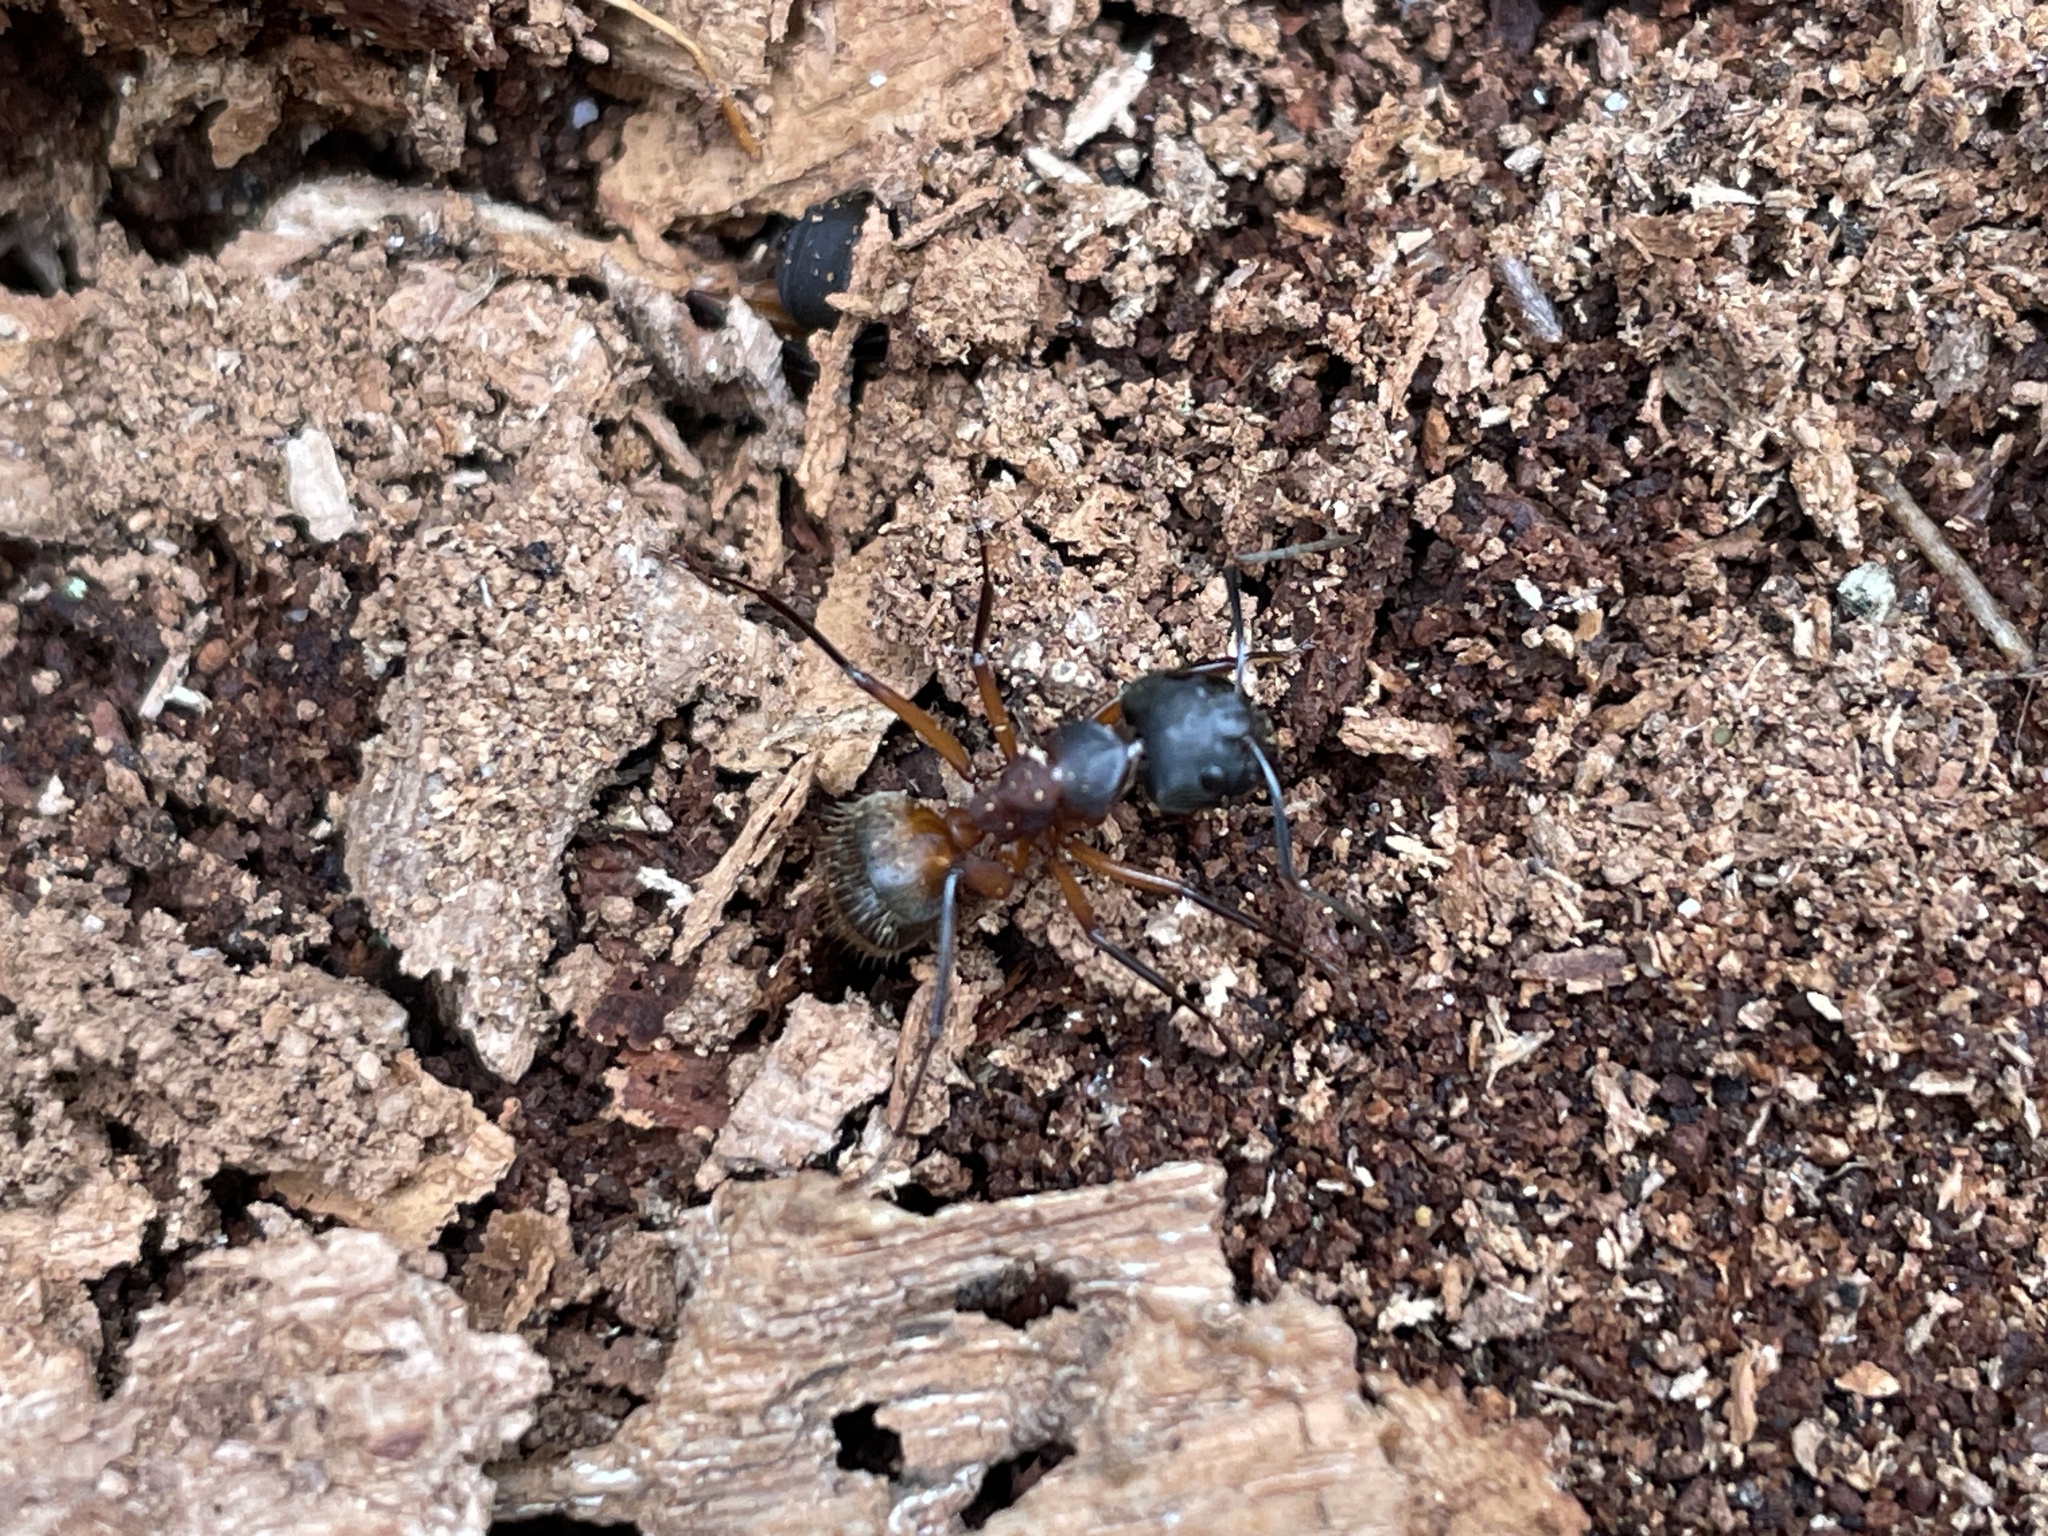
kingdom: Animalia
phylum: Arthropoda
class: Insecta
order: Hymenoptera
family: Formicidae
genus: Camponotus
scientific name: Camponotus chromaiodes
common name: Red carpenter ant
